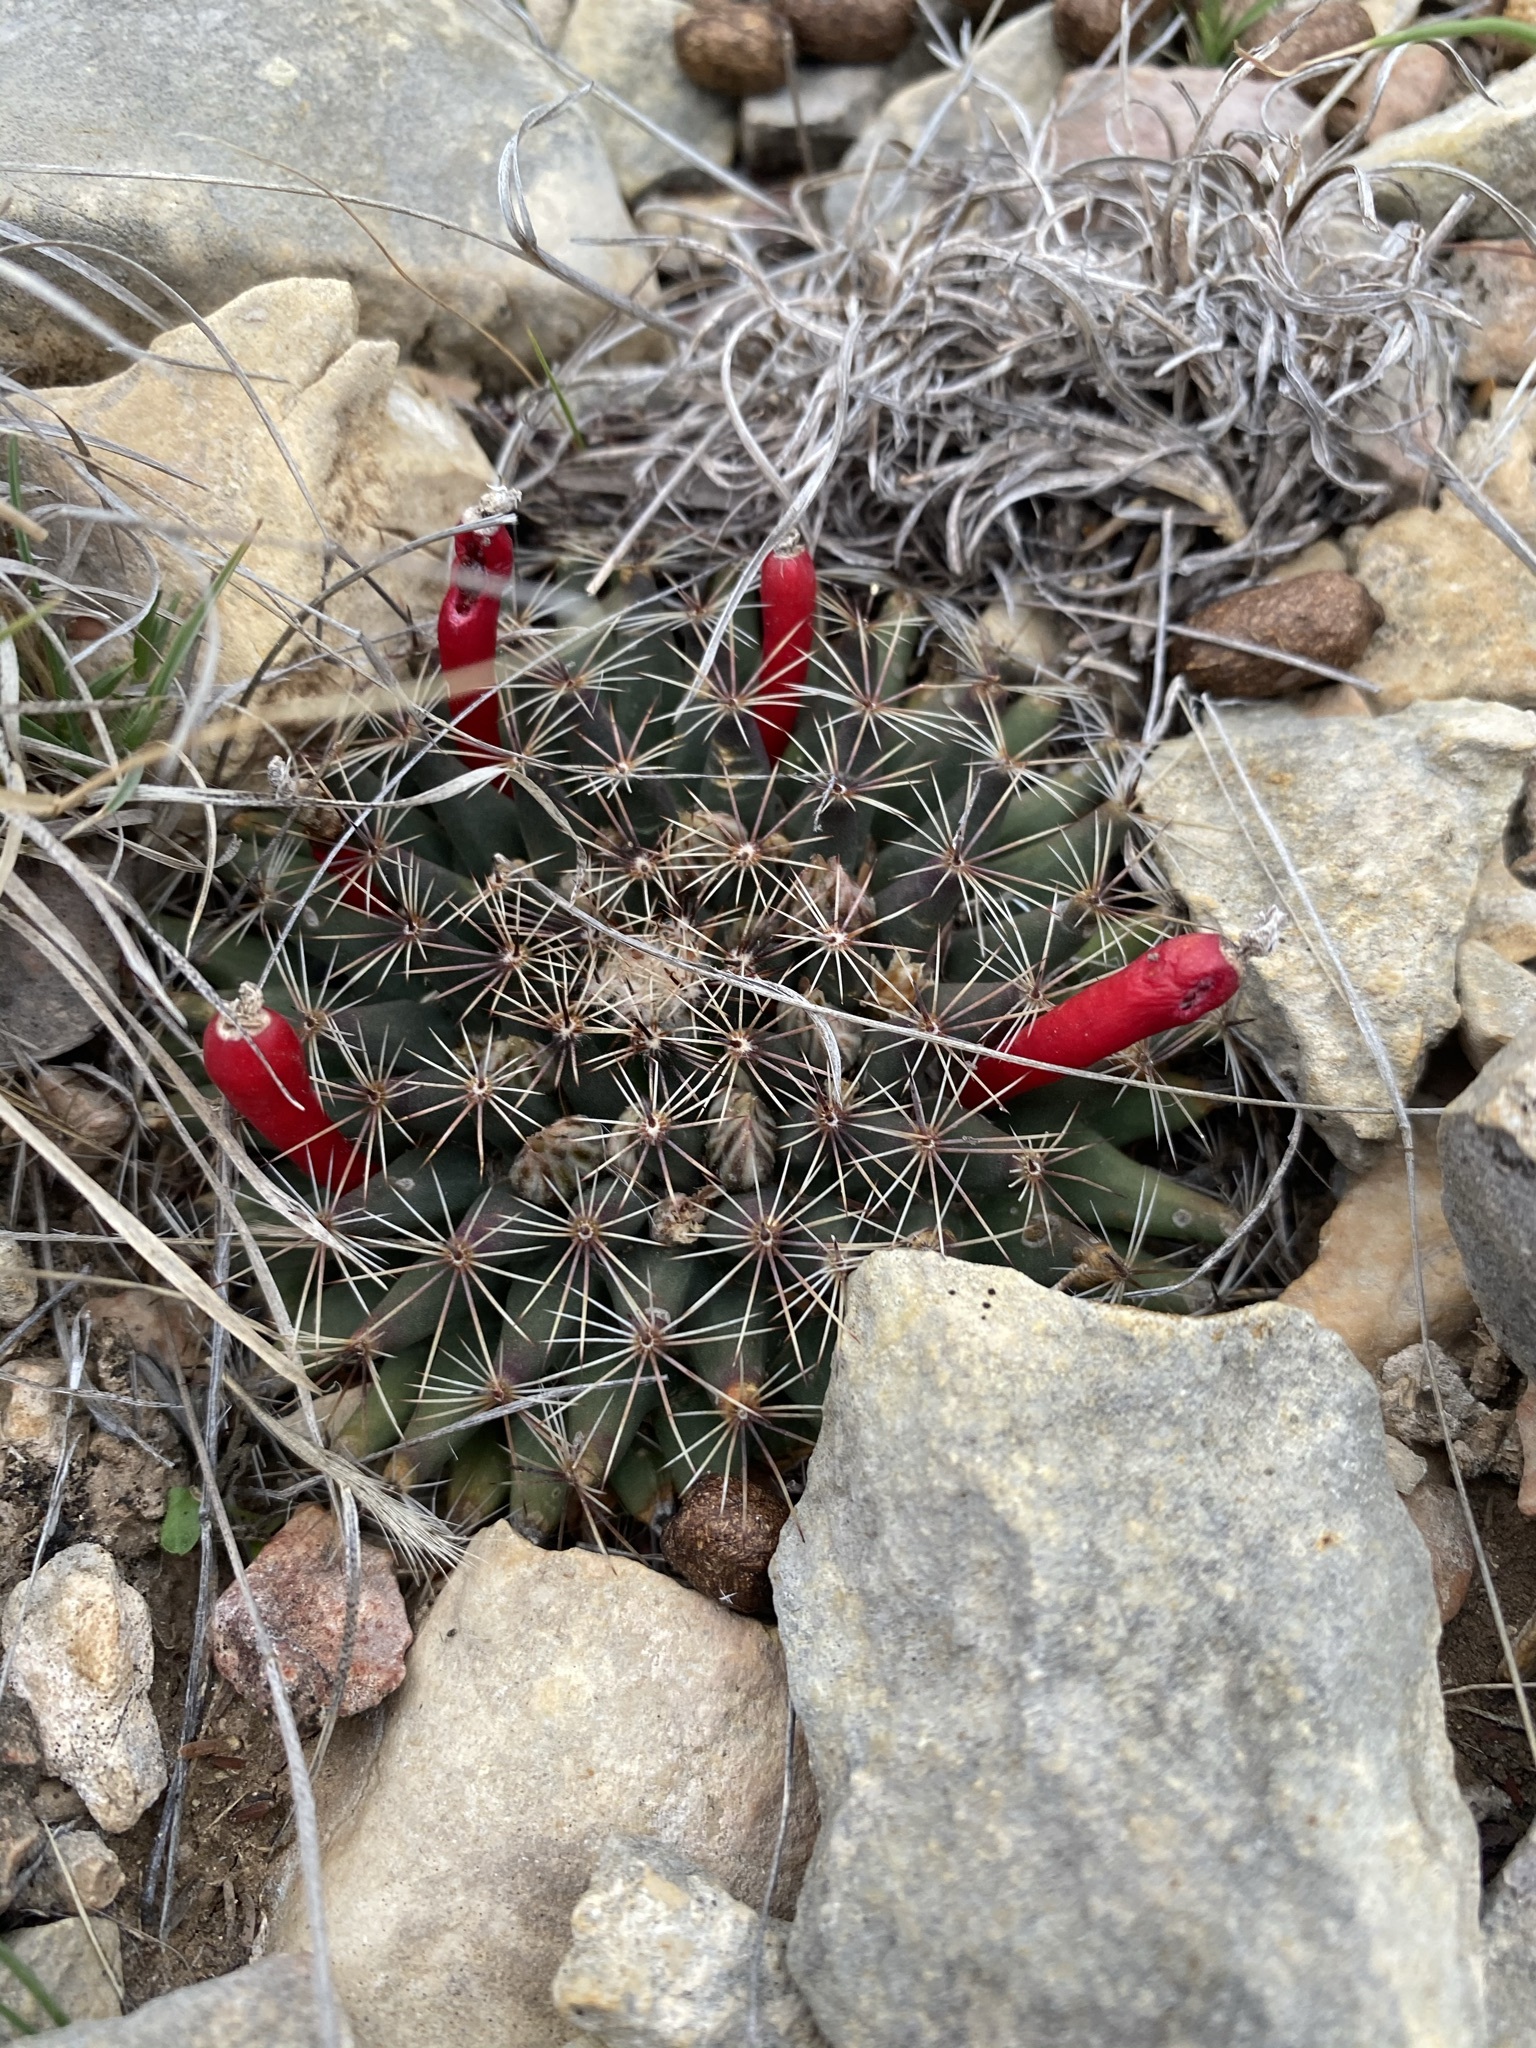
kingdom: Plantae
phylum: Tracheophyta
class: Magnoliopsida
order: Caryophyllales
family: Cactaceae
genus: Mammillaria
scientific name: Mammillaria heyderi
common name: Little nipple cactus
